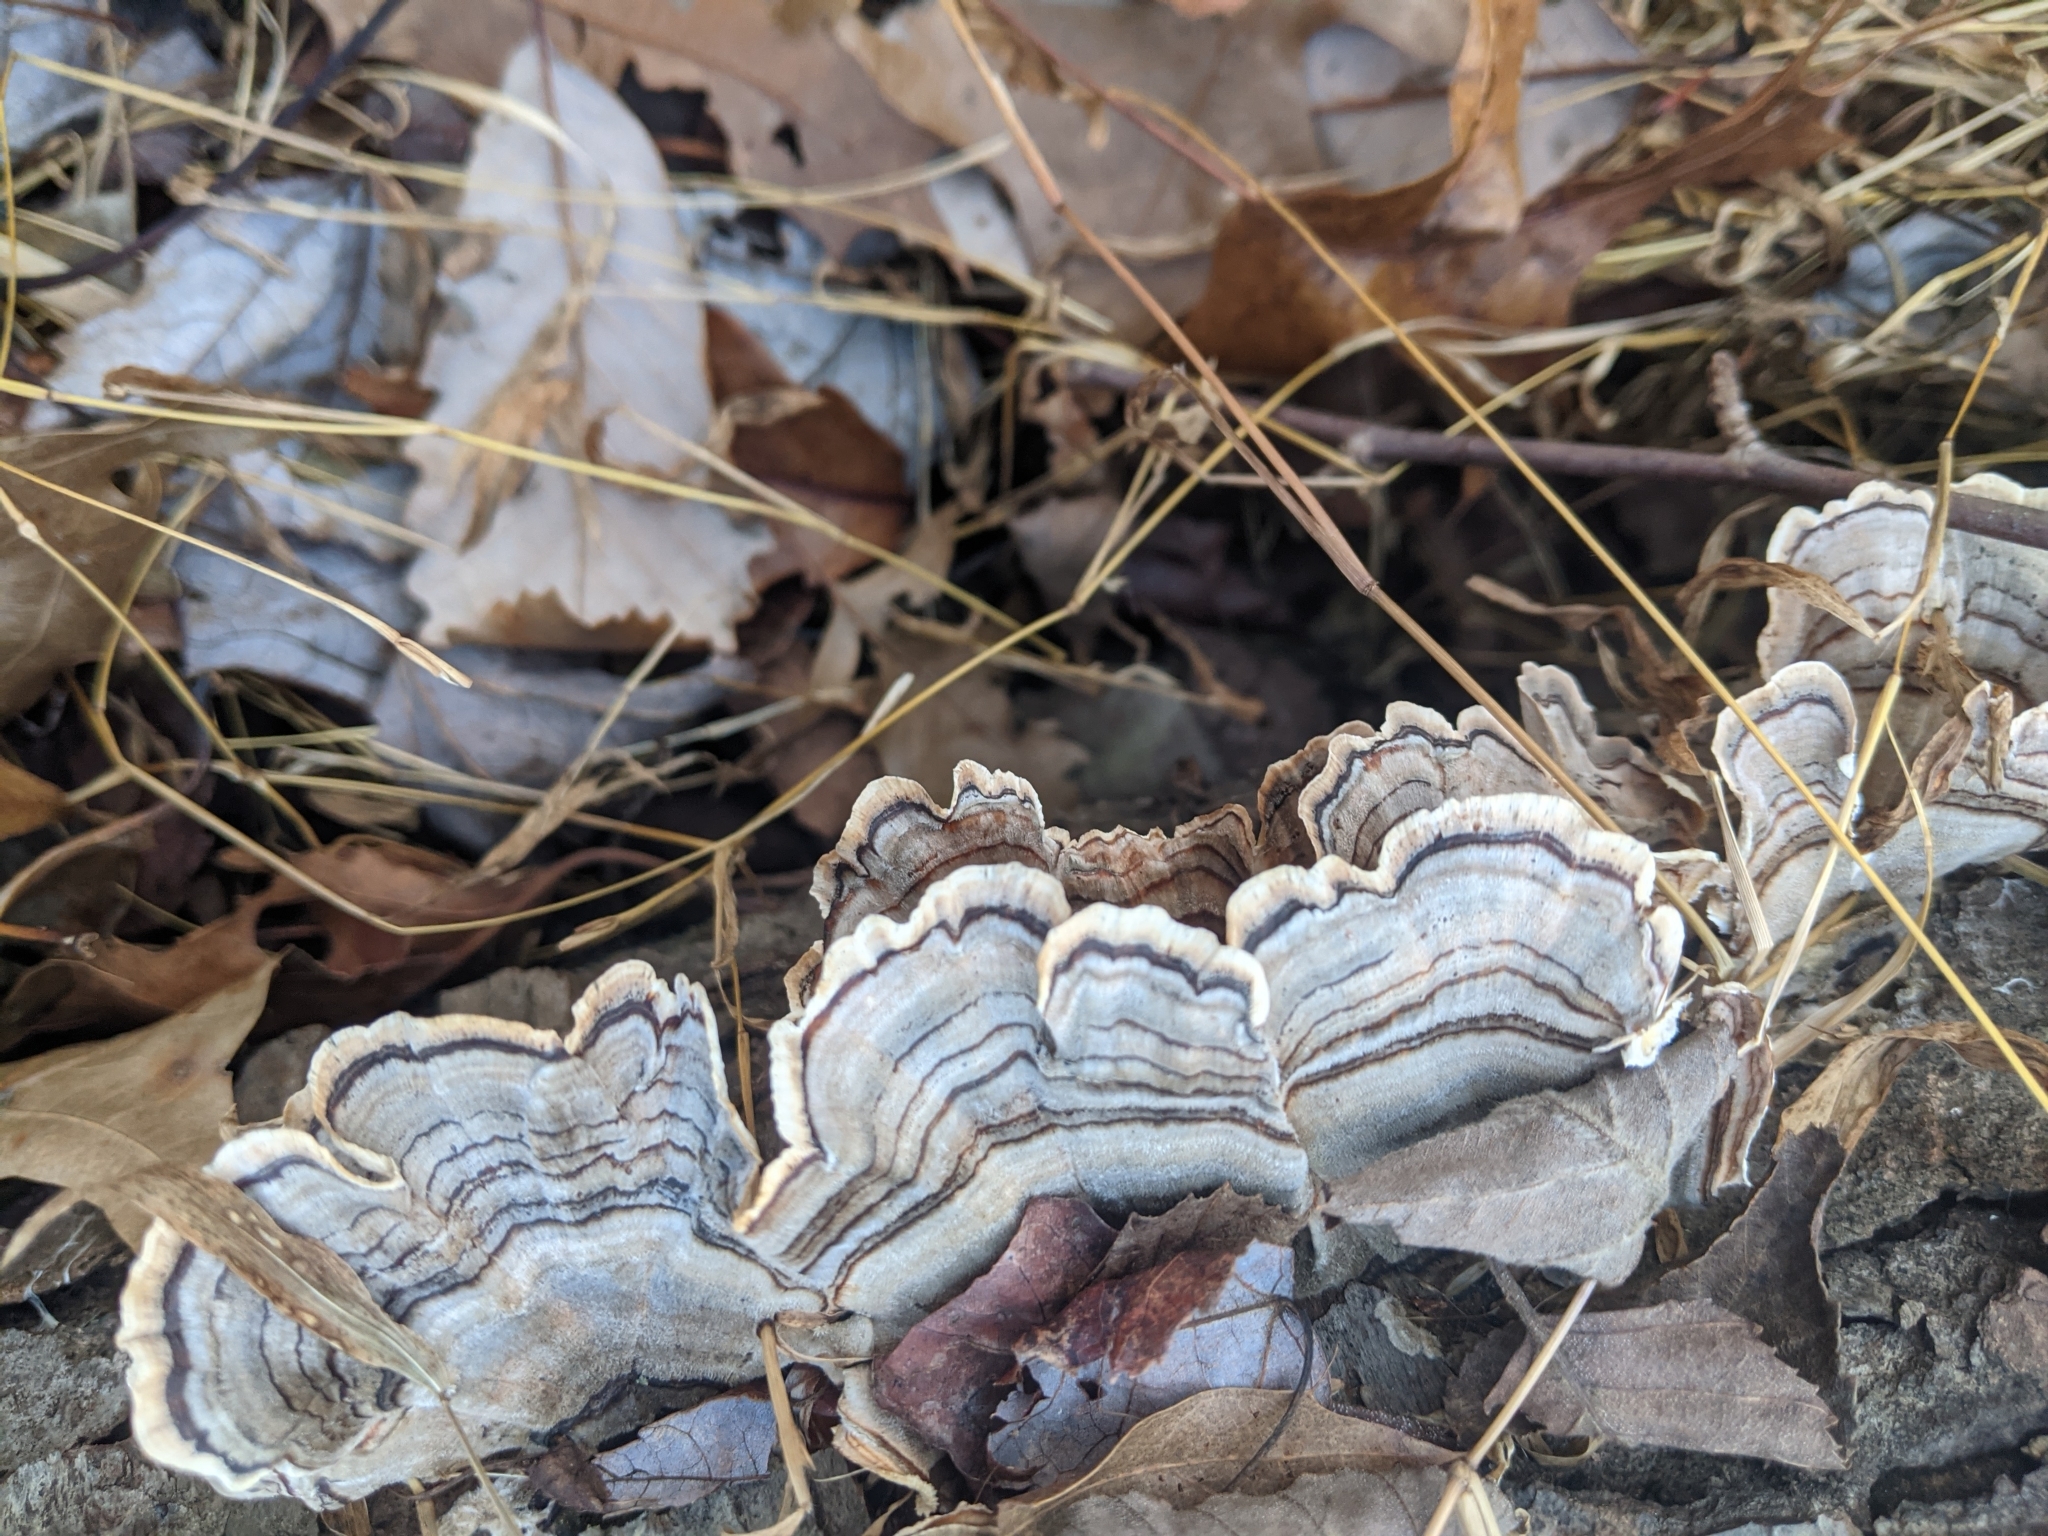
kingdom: Fungi
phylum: Basidiomycota
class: Agaricomycetes
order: Polyporales
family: Polyporaceae
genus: Trametes
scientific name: Trametes versicolor
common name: Turkeytail
